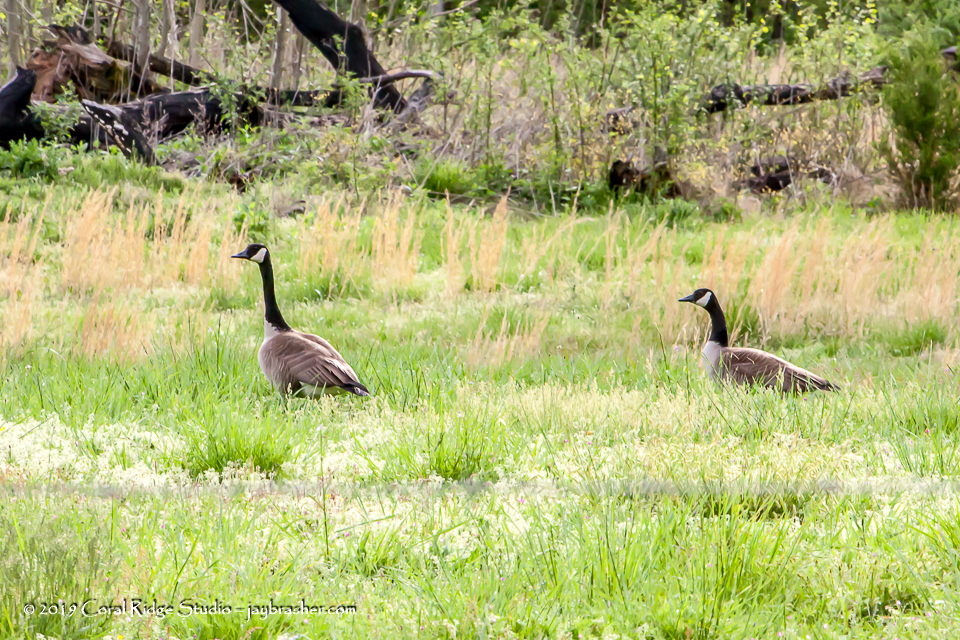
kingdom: Animalia
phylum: Chordata
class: Aves
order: Anseriformes
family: Anatidae
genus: Branta
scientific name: Branta canadensis
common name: Canada goose
